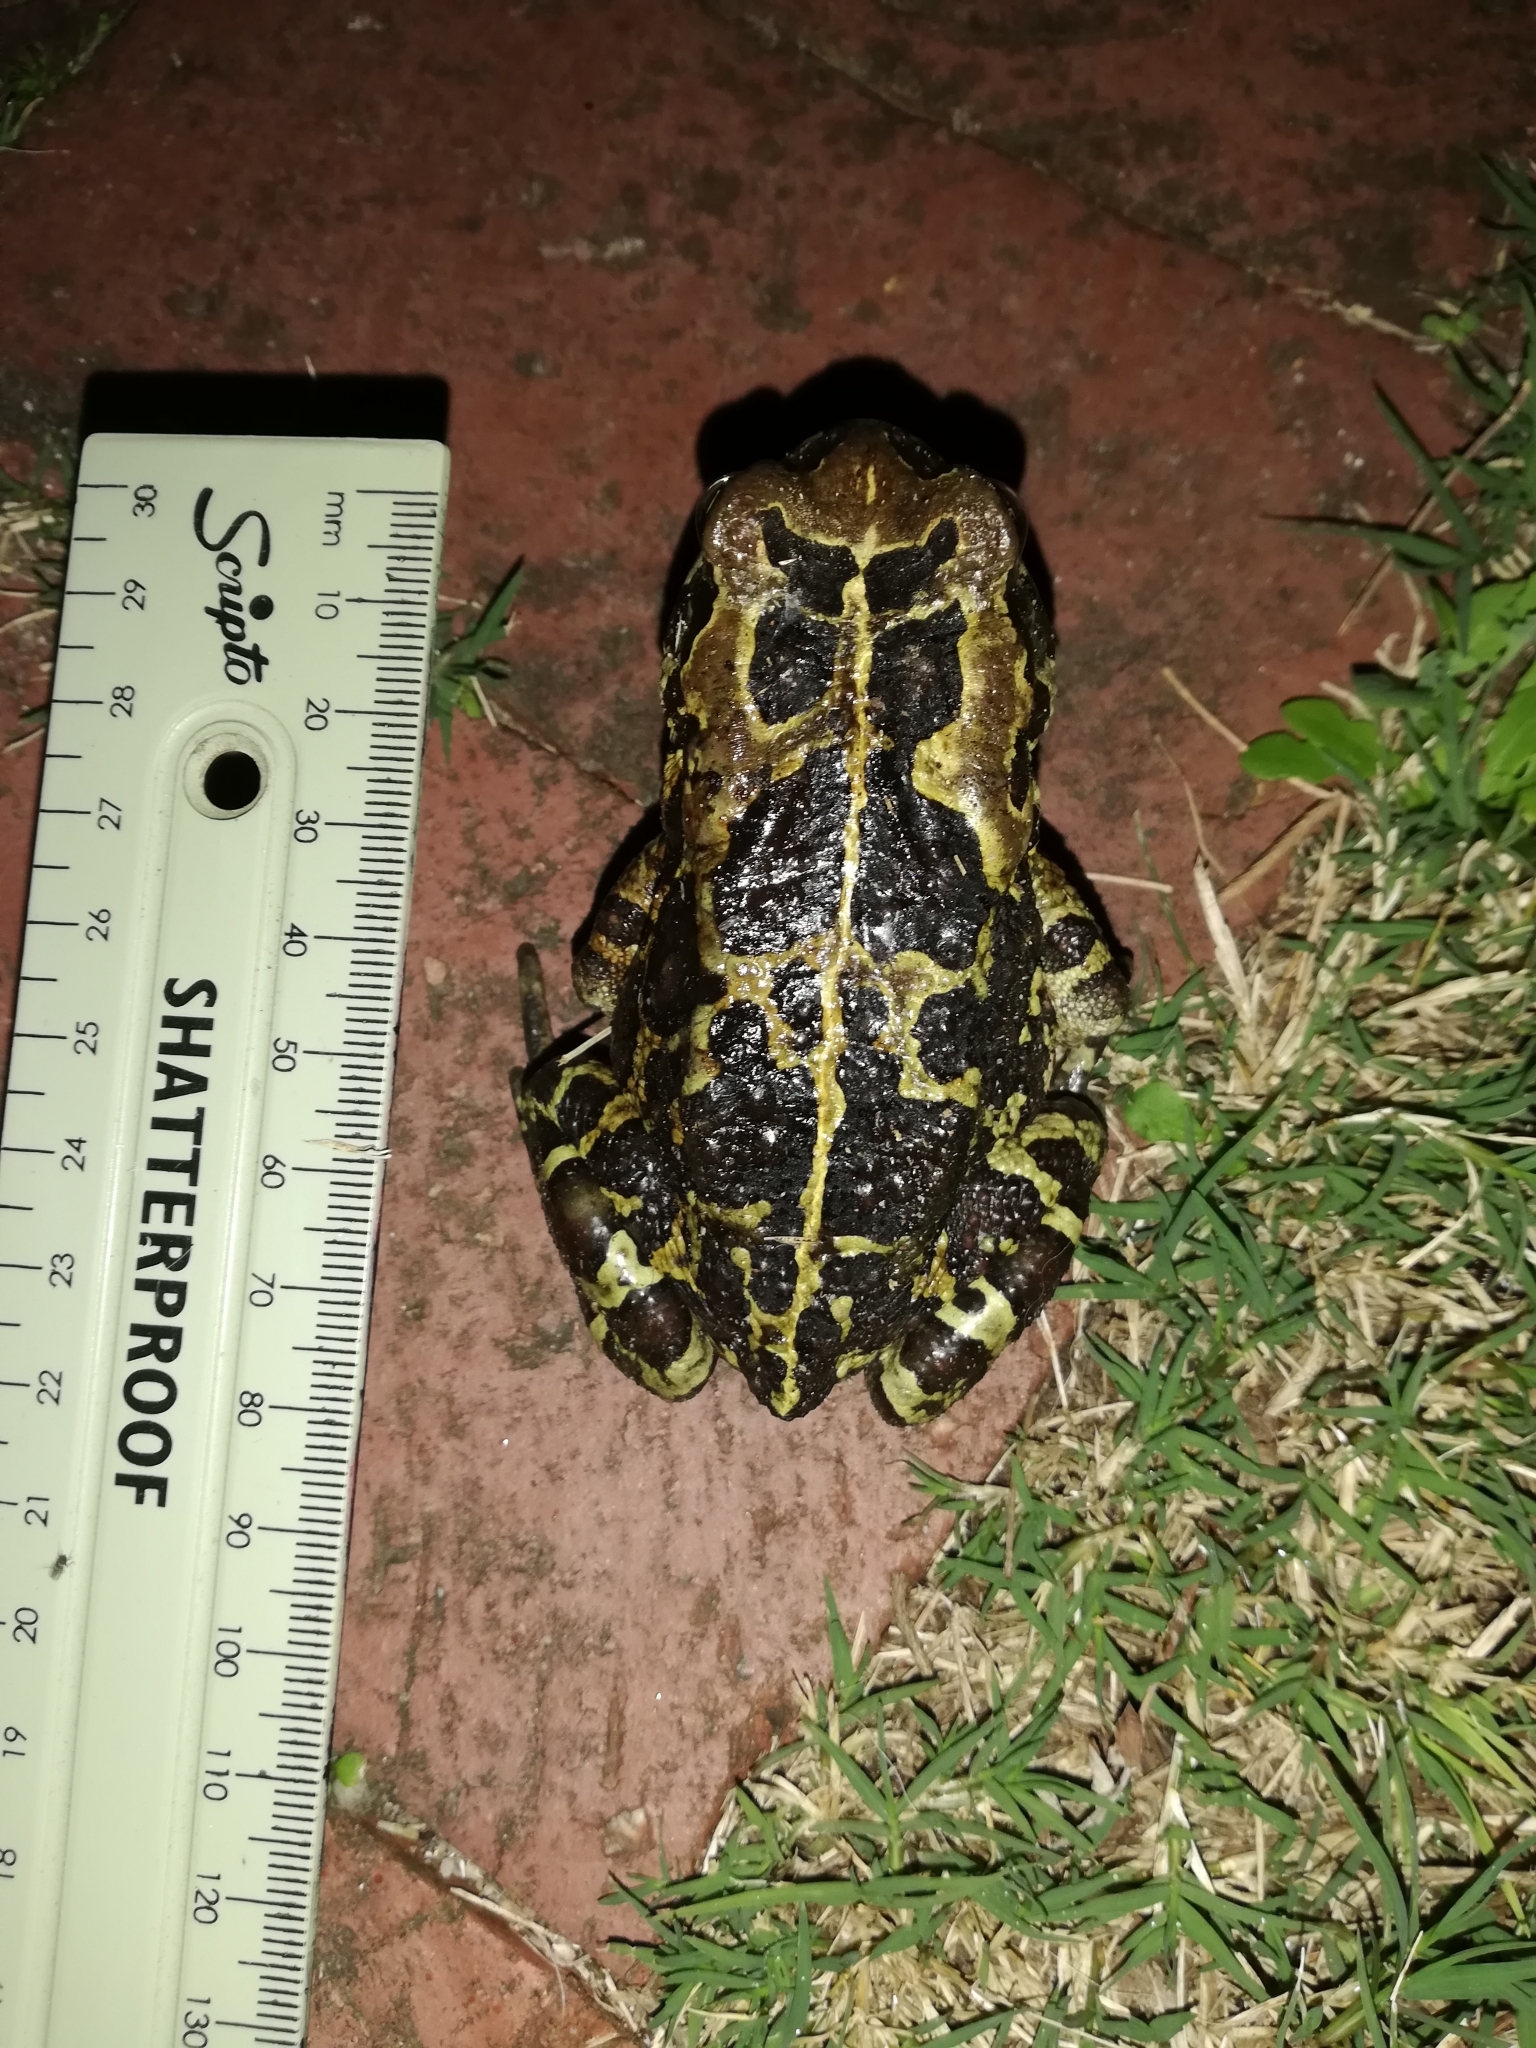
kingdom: Animalia
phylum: Chordata
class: Amphibia
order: Anura
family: Bufonidae
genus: Sclerophrys
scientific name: Sclerophrys pantherina
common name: Panther toad
